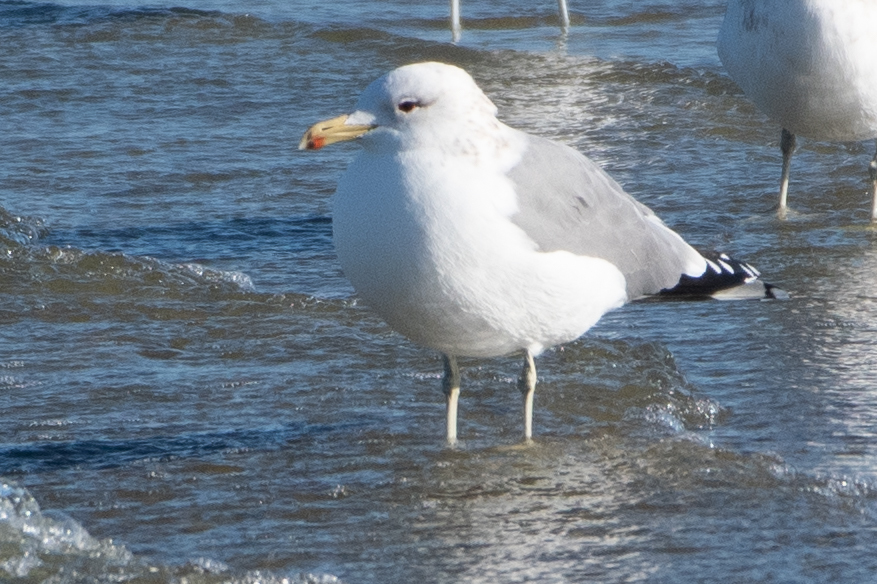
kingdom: Animalia
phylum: Chordata
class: Aves
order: Charadriiformes
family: Laridae
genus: Larus
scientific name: Larus californicus
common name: California gull
